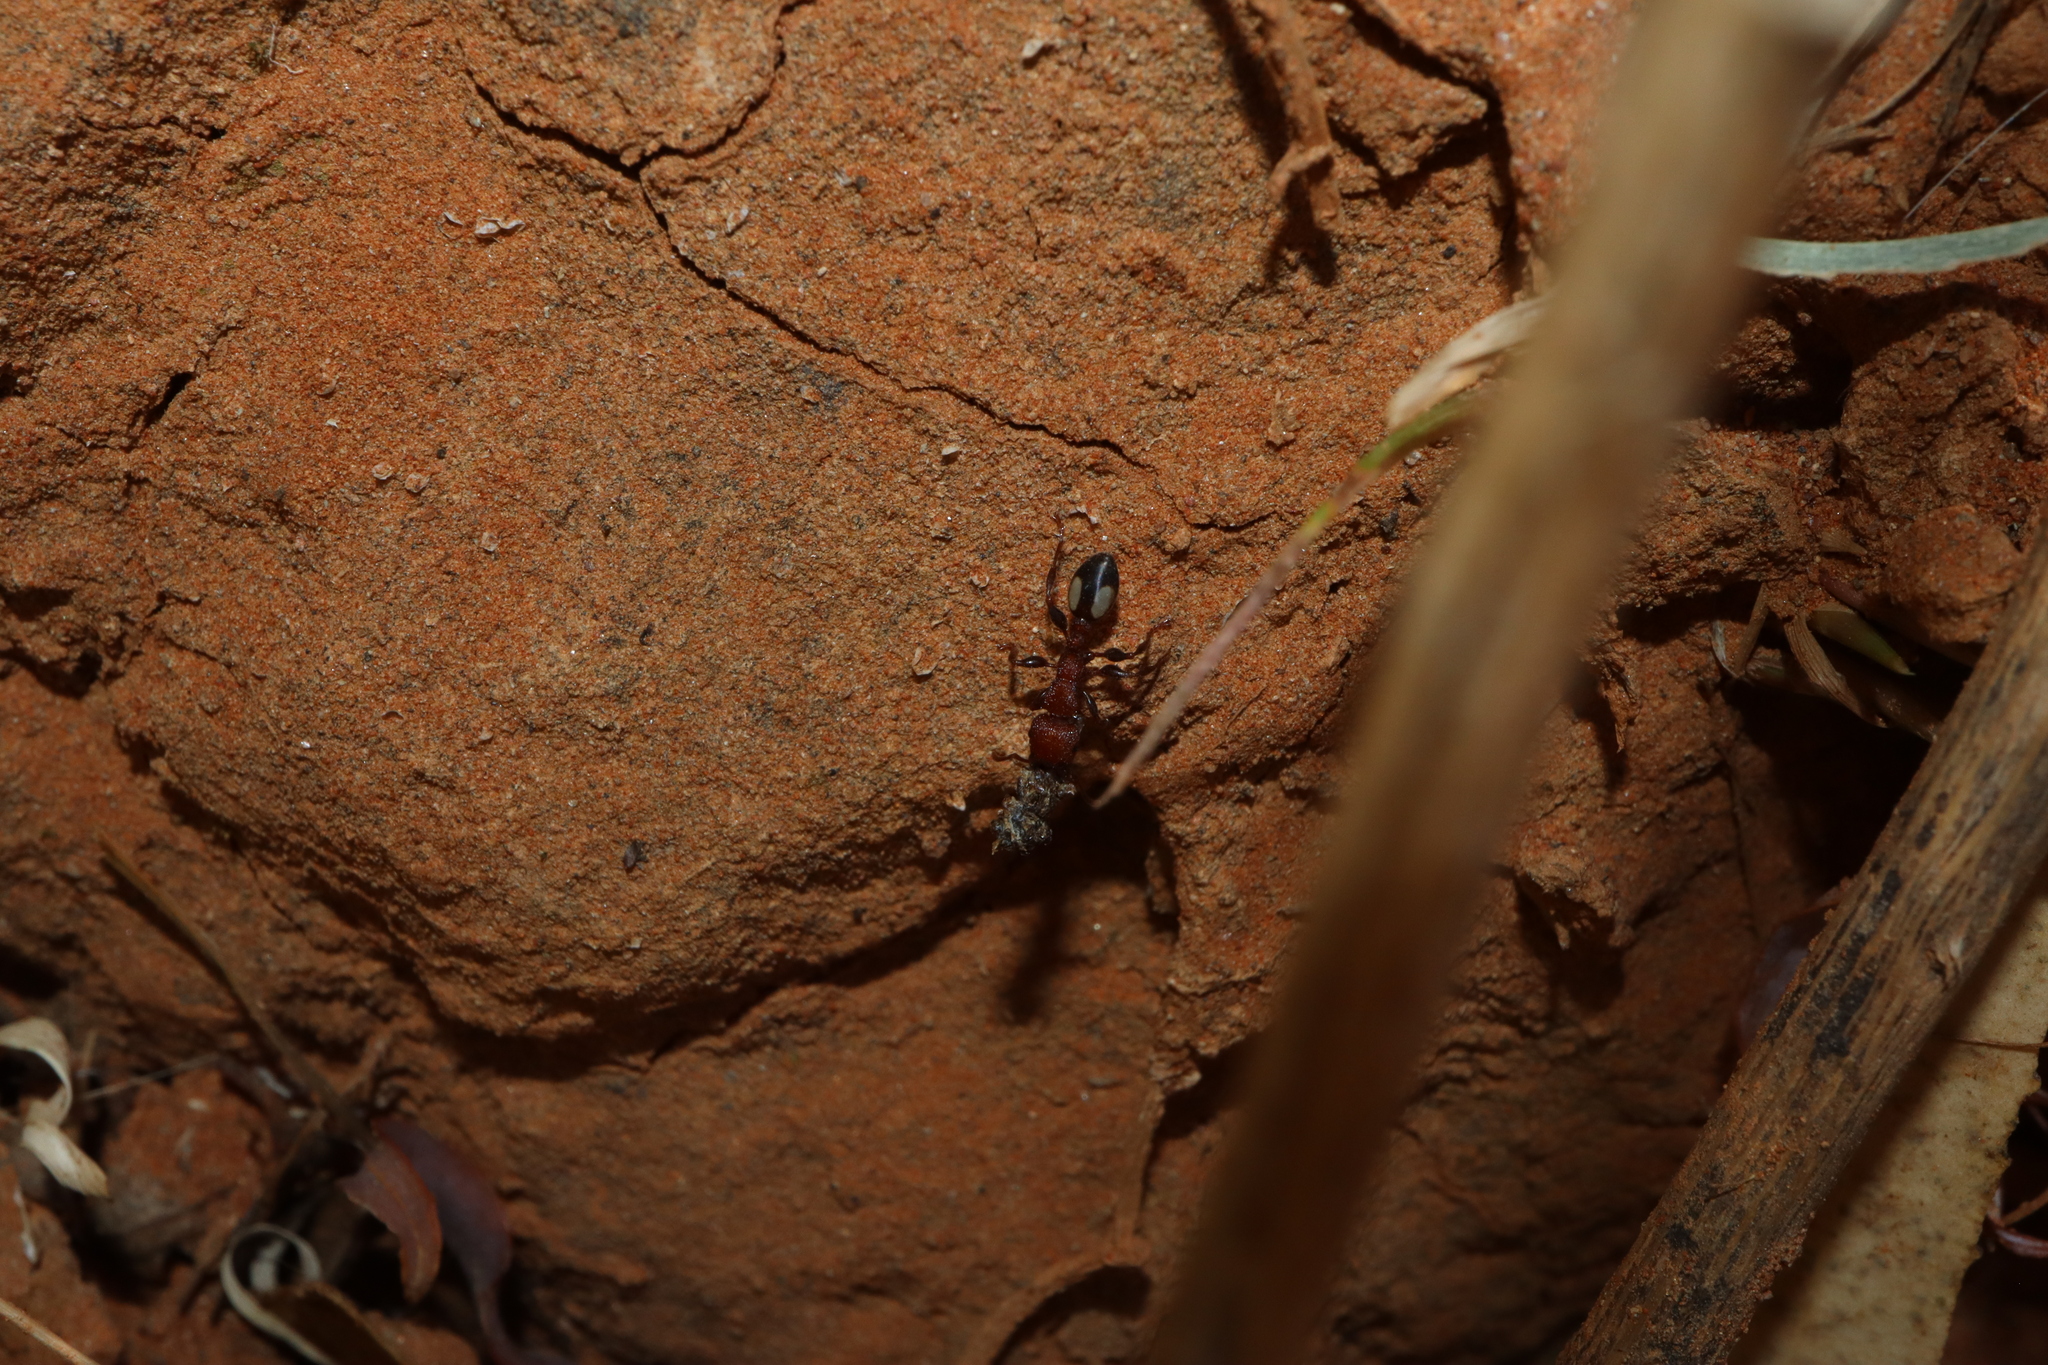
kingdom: Animalia
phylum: Arthropoda
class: Insecta
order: Hymenoptera
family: Formicidae
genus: Podomyrma
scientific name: Podomyrma adelaidae
